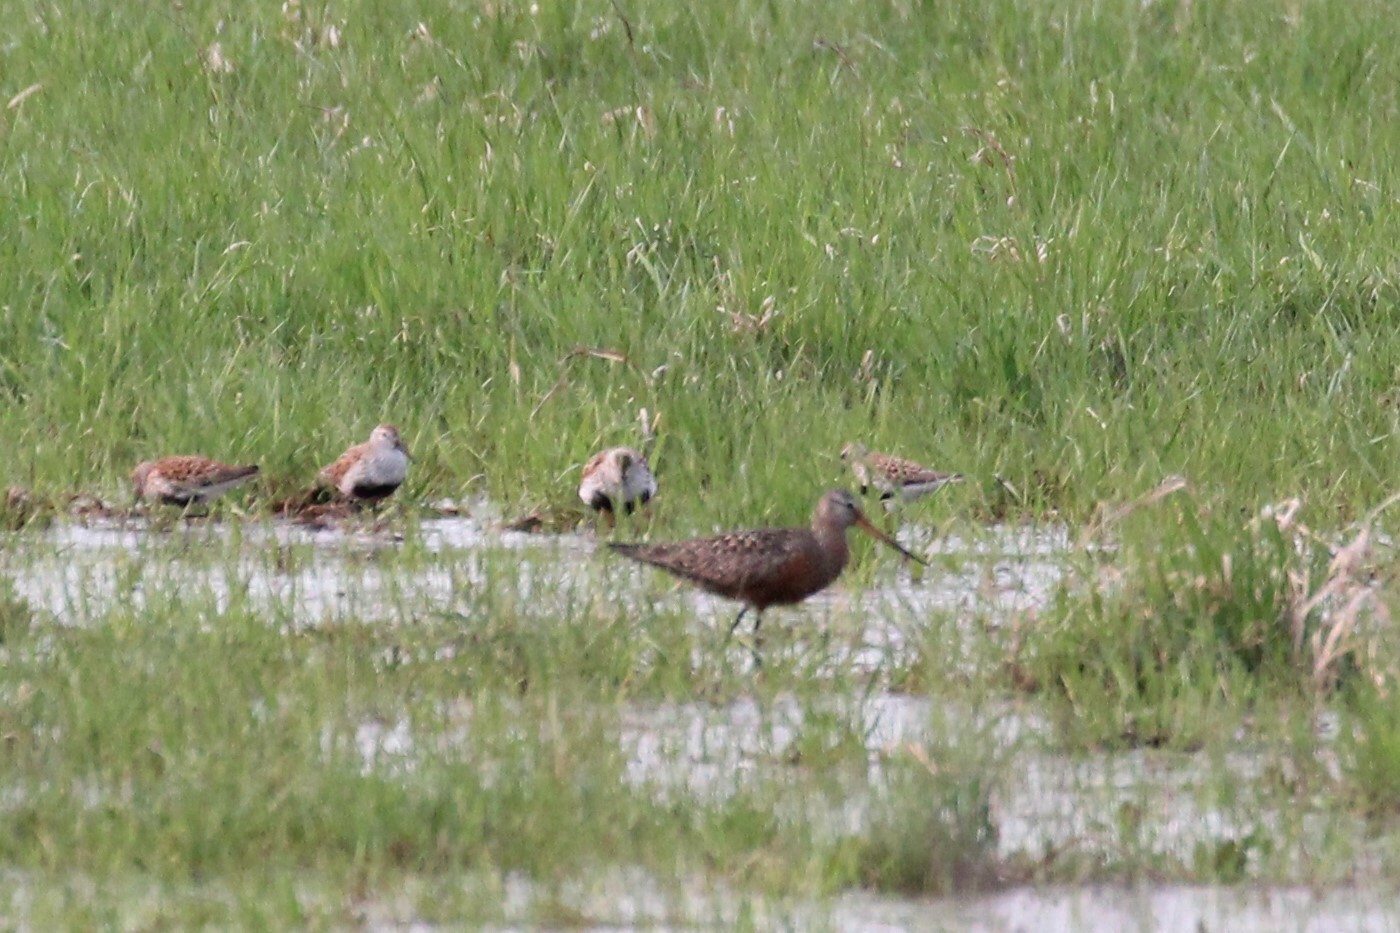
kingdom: Animalia
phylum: Chordata
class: Aves
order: Charadriiformes
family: Scolopacidae
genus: Limosa
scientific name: Limosa haemastica
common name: Hudsonian godwit
